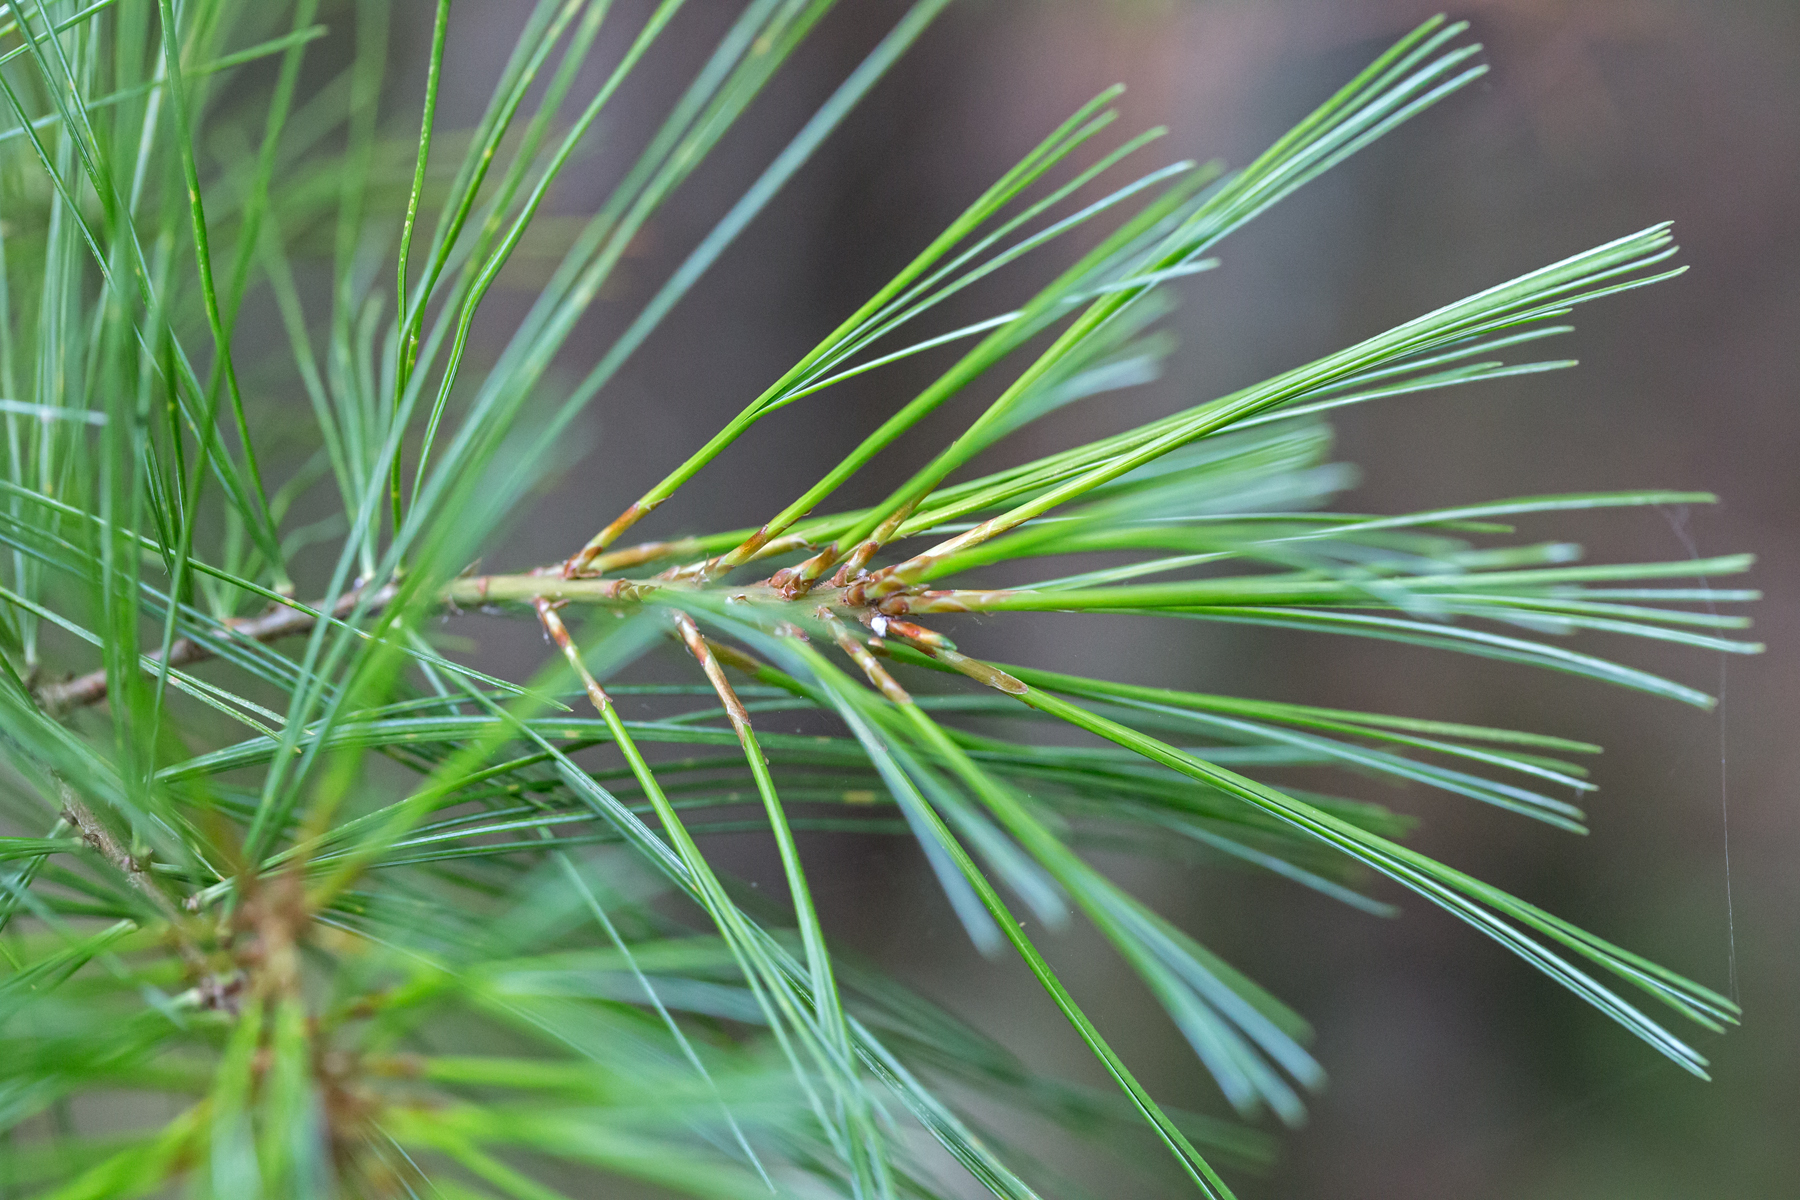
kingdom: Plantae
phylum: Tracheophyta
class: Pinopsida
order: Pinales
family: Pinaceae
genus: Pinus
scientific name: Pinus strobus
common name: Weymouth pine
